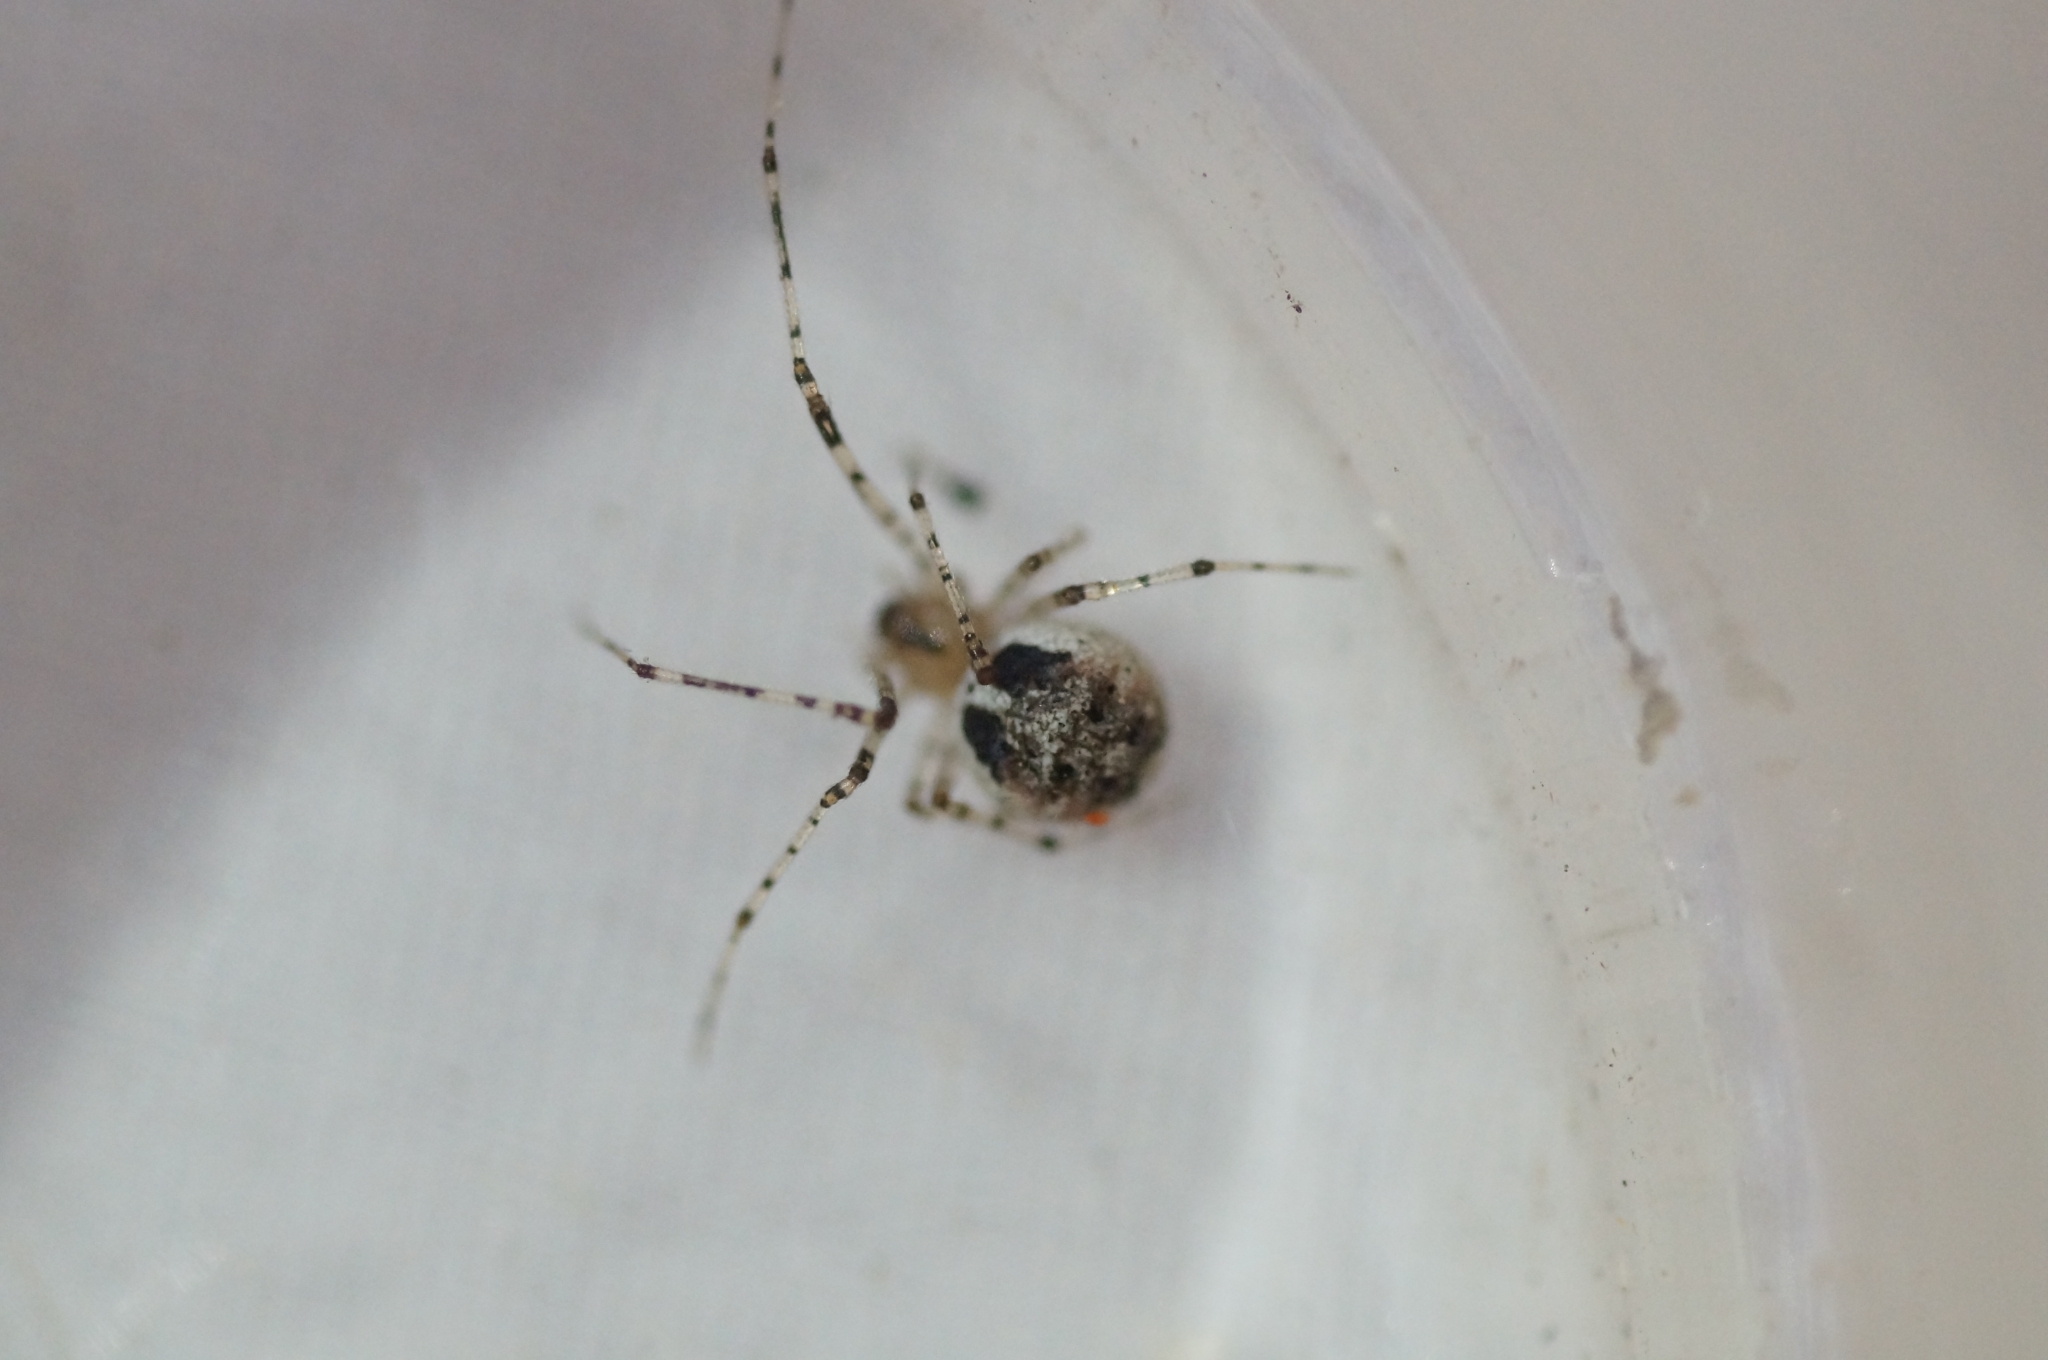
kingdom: Animalia
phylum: Arthropoda
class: Arachnida
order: Araneae
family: Theridiidae
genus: Platnickina
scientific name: Platnickina tincta
